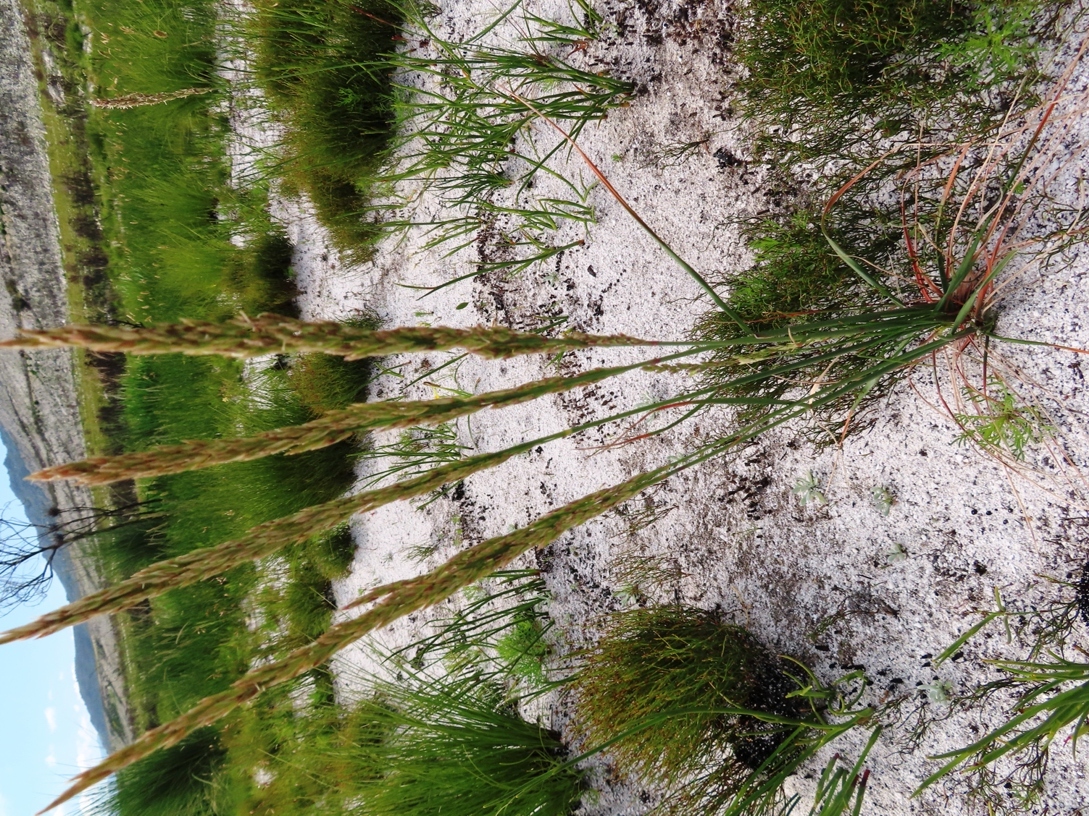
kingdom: Plantae
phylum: Tracheophyta
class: Liliopsida
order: Poales
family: Poaceae
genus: Festuca
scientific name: Festuca scabra
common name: Munnik fescue
